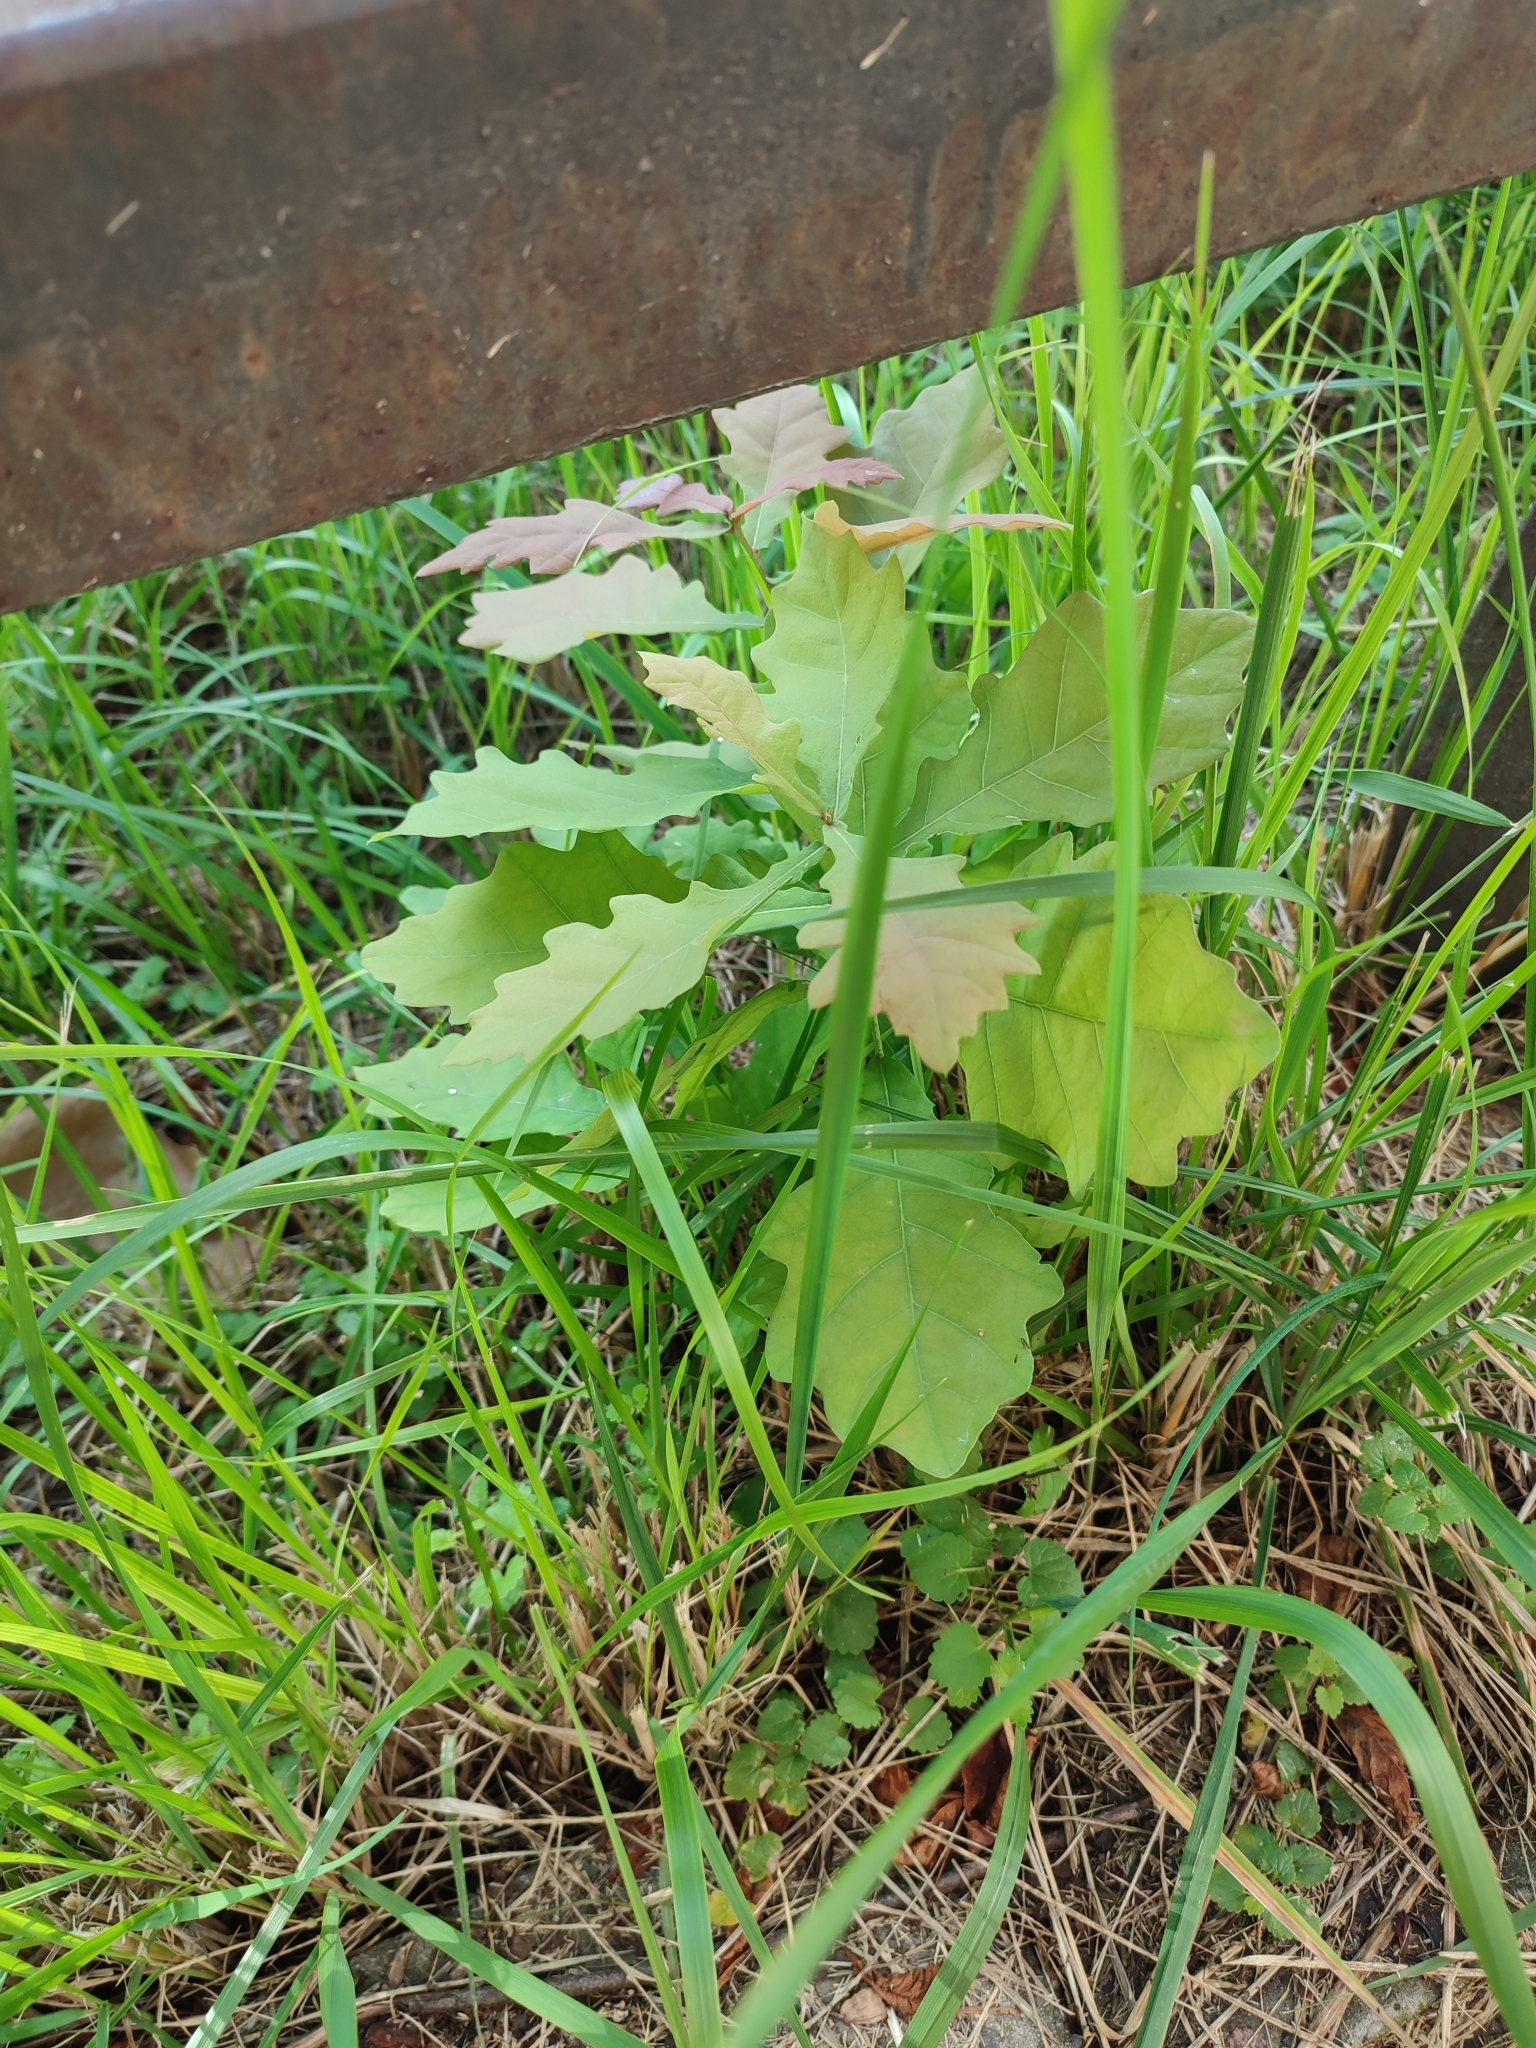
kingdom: Plantae
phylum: Tracheophyta
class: Magnoliopsida
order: Fagales
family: Fagaceae
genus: Quercus
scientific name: Quercus robur
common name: Pedunculate oak
